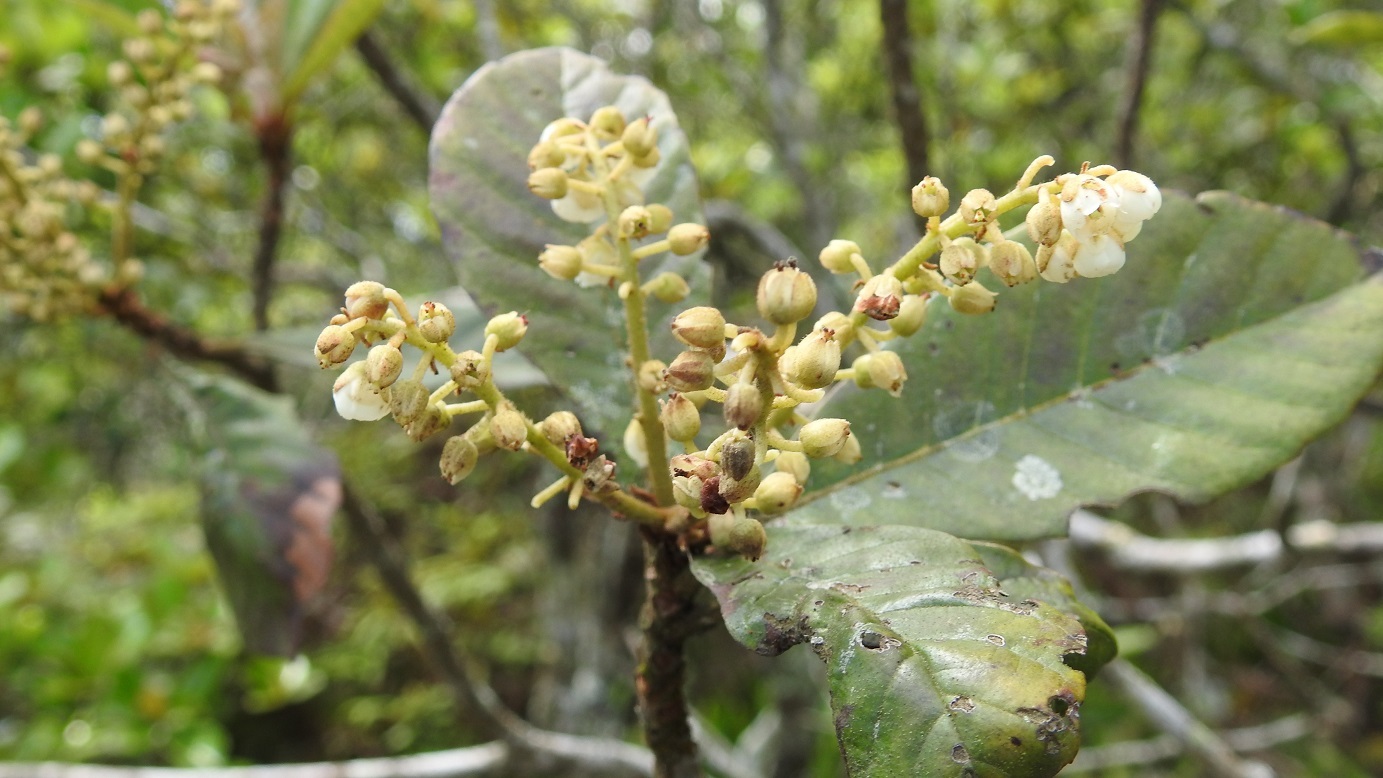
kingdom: Plantae
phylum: Tracheophyta
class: Magnoliopsida
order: Ericales
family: Clethraceae
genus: Clethra
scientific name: Clethra purpusii
